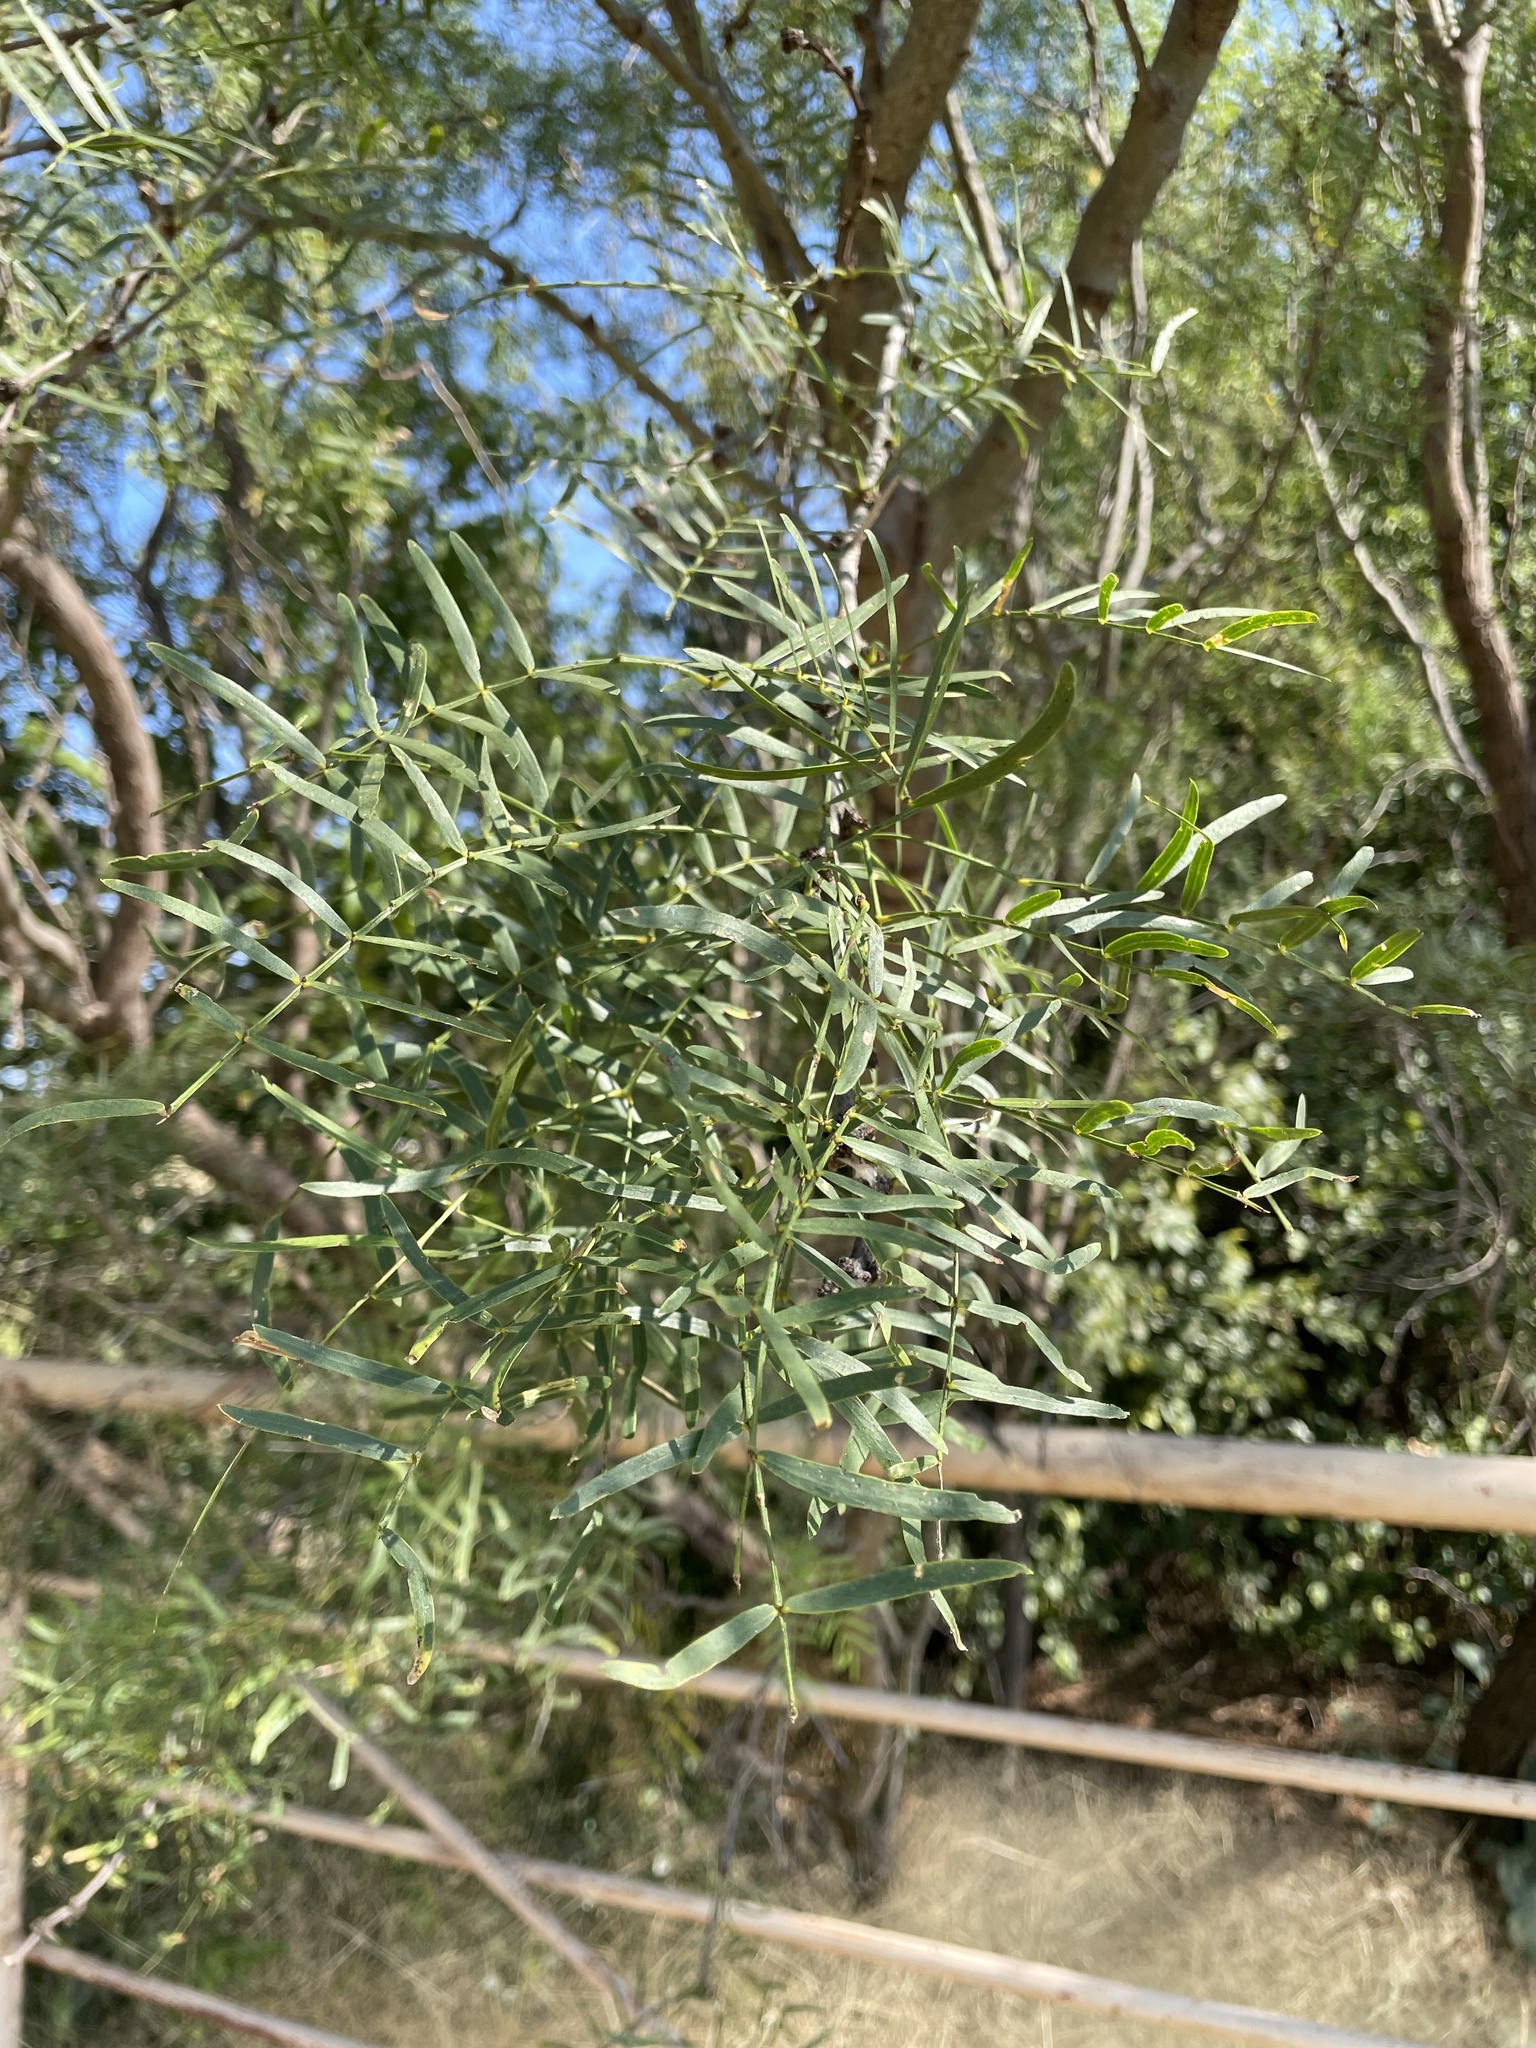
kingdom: Plantae
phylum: Tracheophyta
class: Magnoliopsida
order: Fabales
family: Fabaceae
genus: Prosopis
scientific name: Prosopis glandulosa
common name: Honey mesquite
